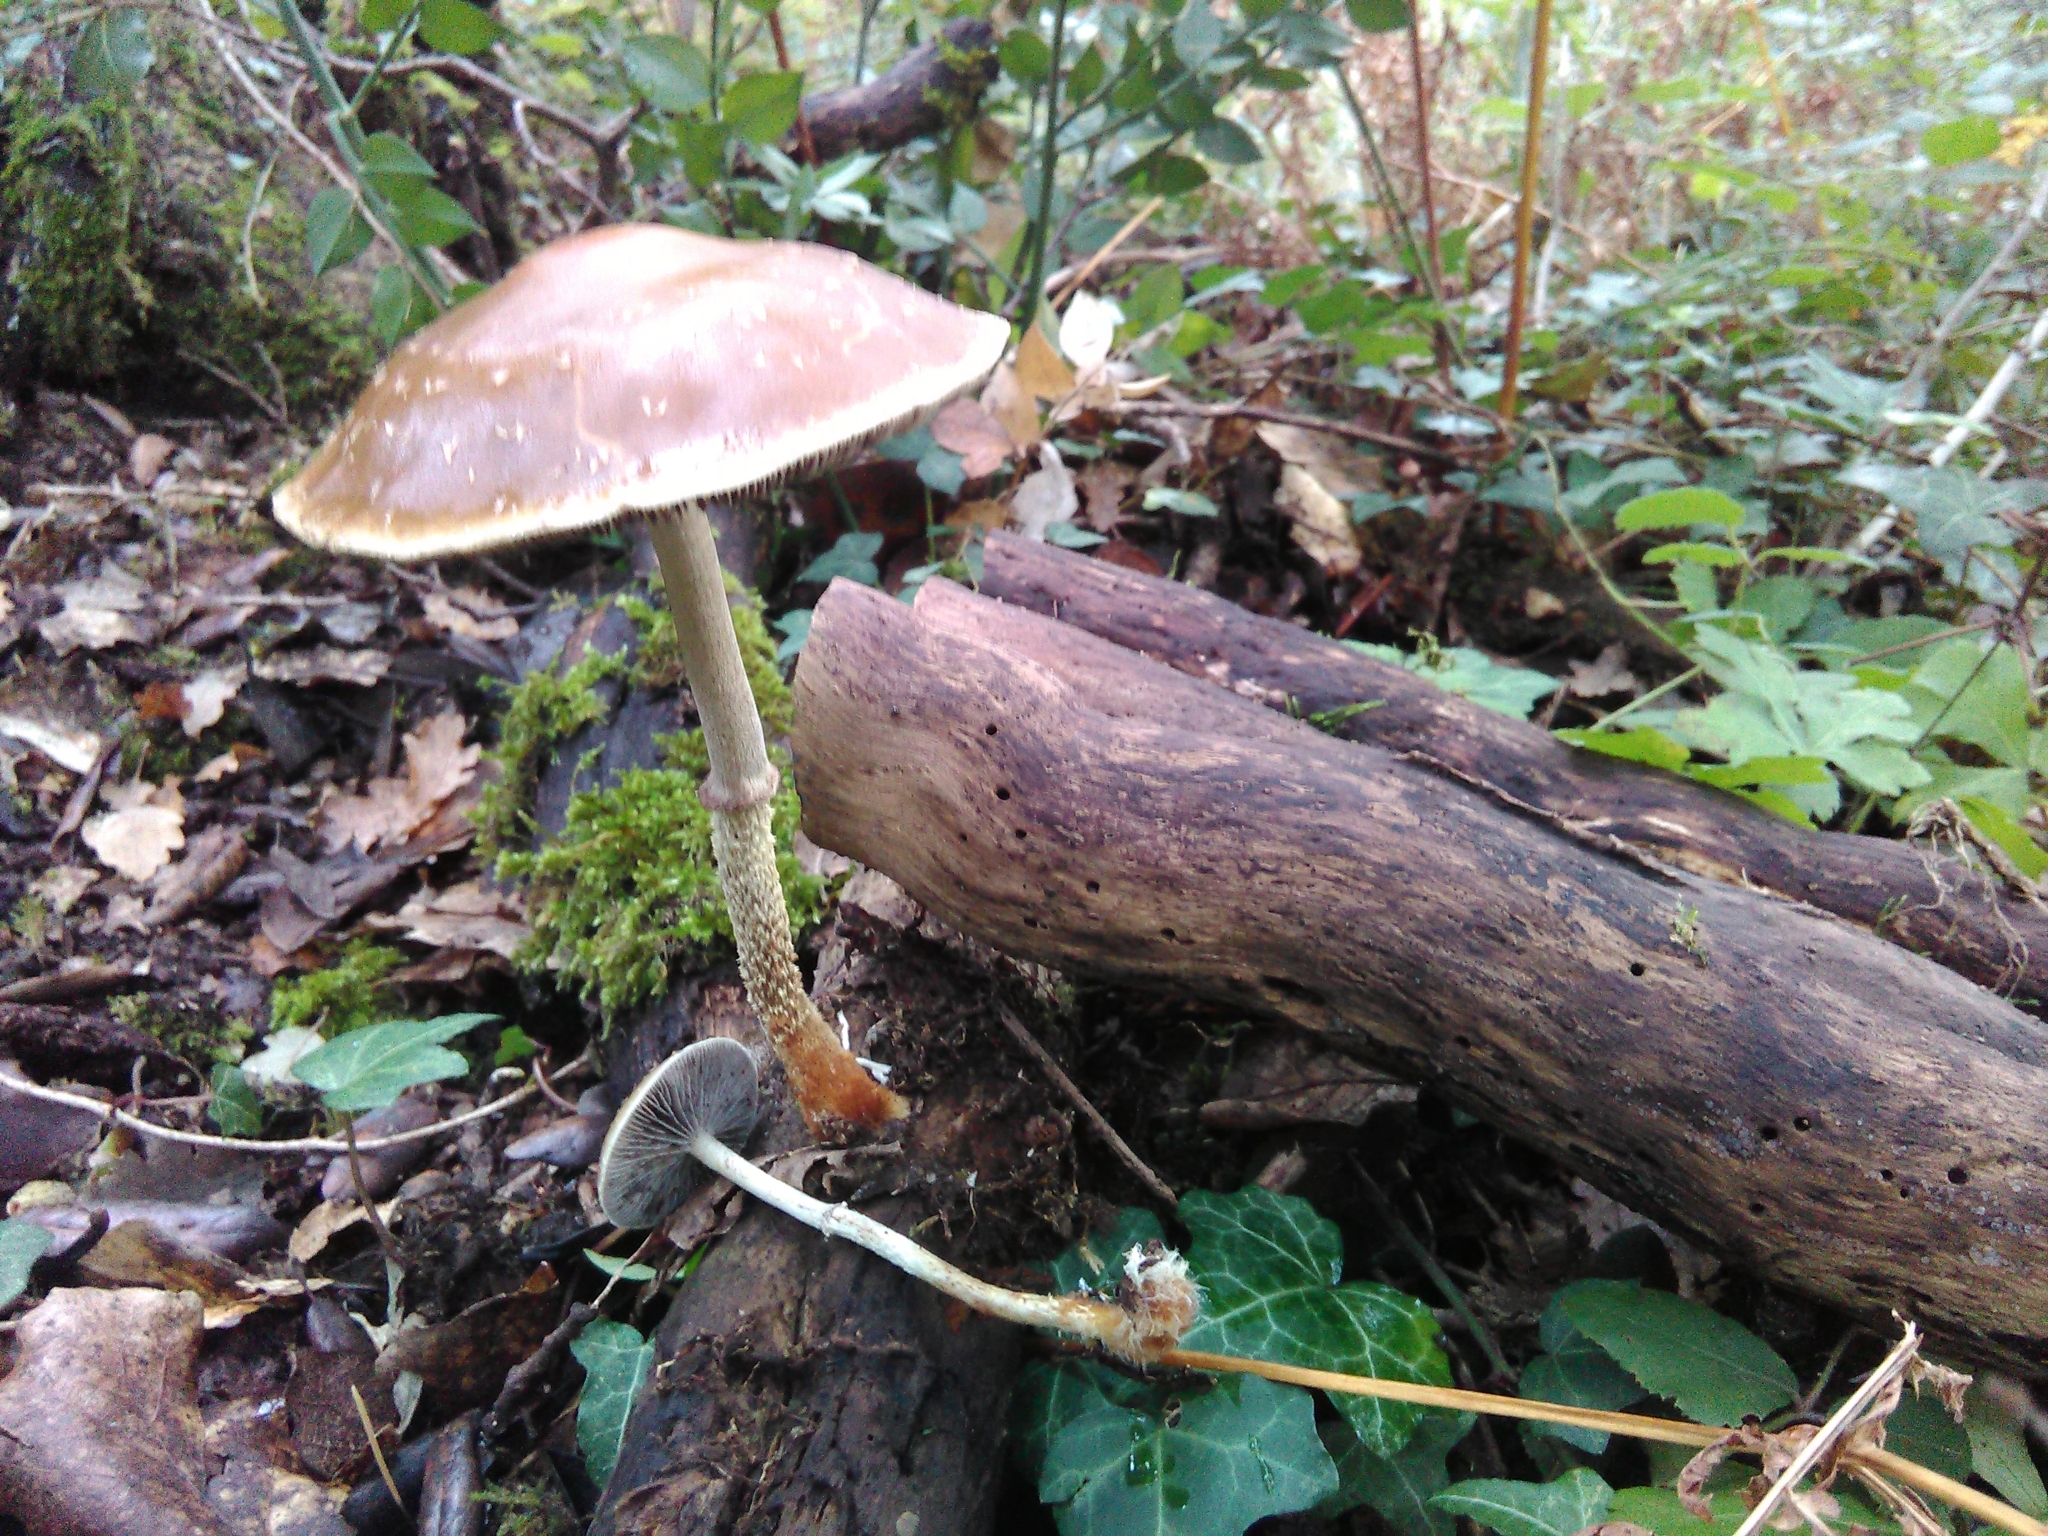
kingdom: Fungi
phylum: Basidiomycota
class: Agaricomycetes
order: Agaricales
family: Strophariaceae
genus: Leratiomyces
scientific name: Leratiomyces squamosus
